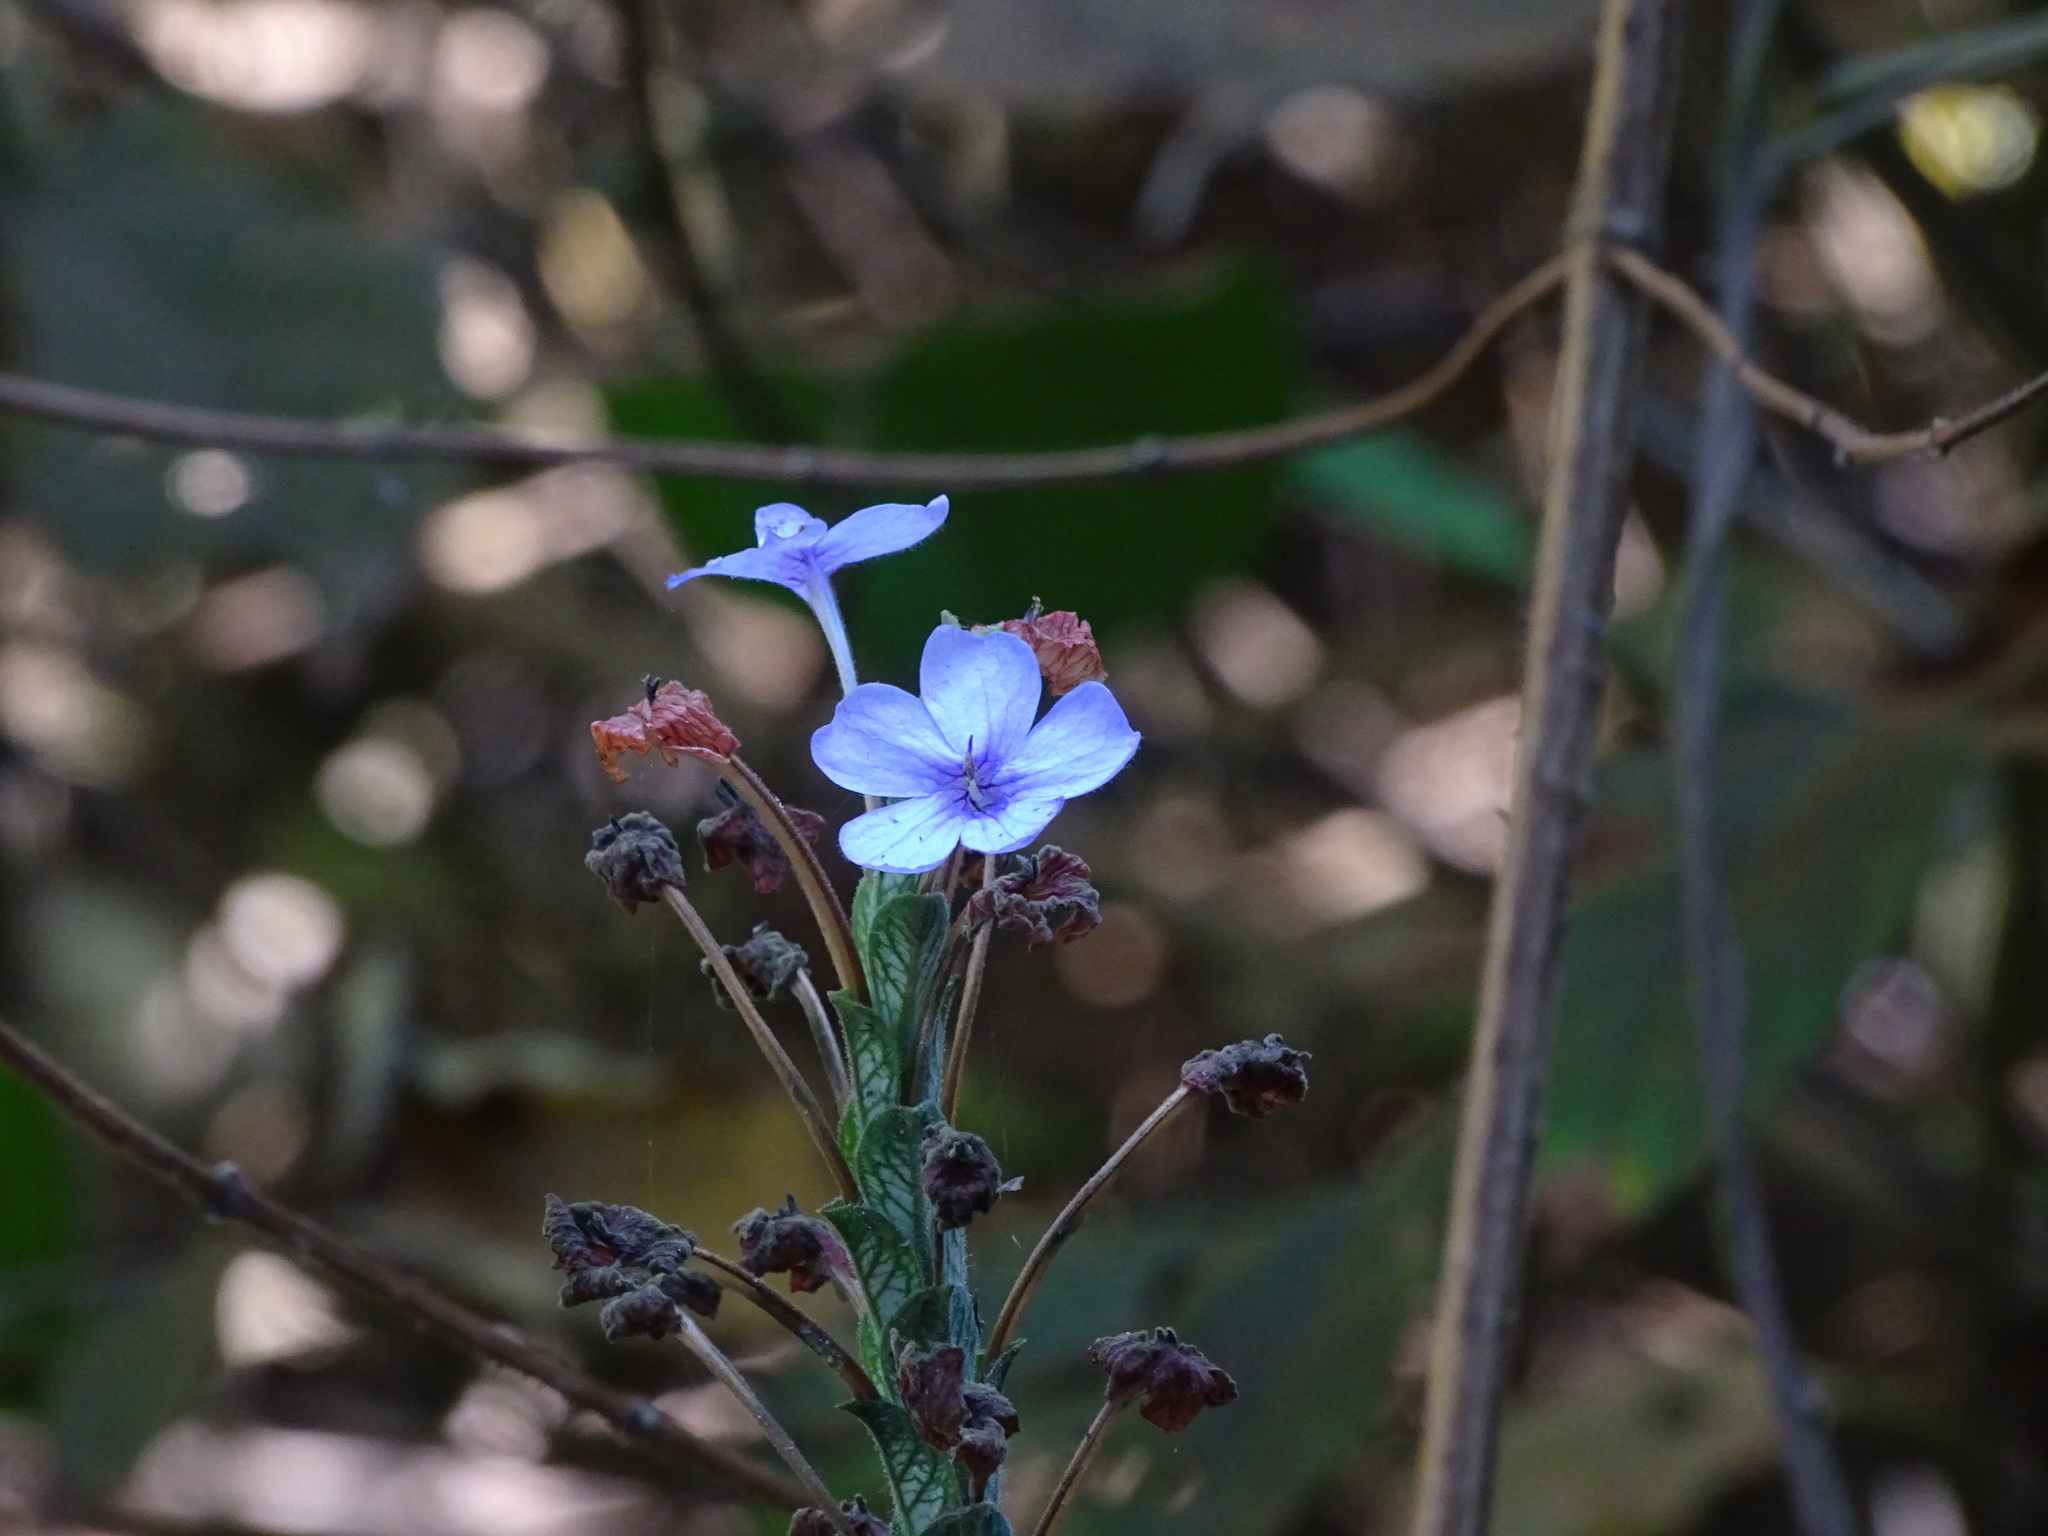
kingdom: Plantae
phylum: Tracheophyta
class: Magnoliopsida
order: Lamiales
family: Acanthaceae
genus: Eranthemum
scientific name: Eranthemum roseum
